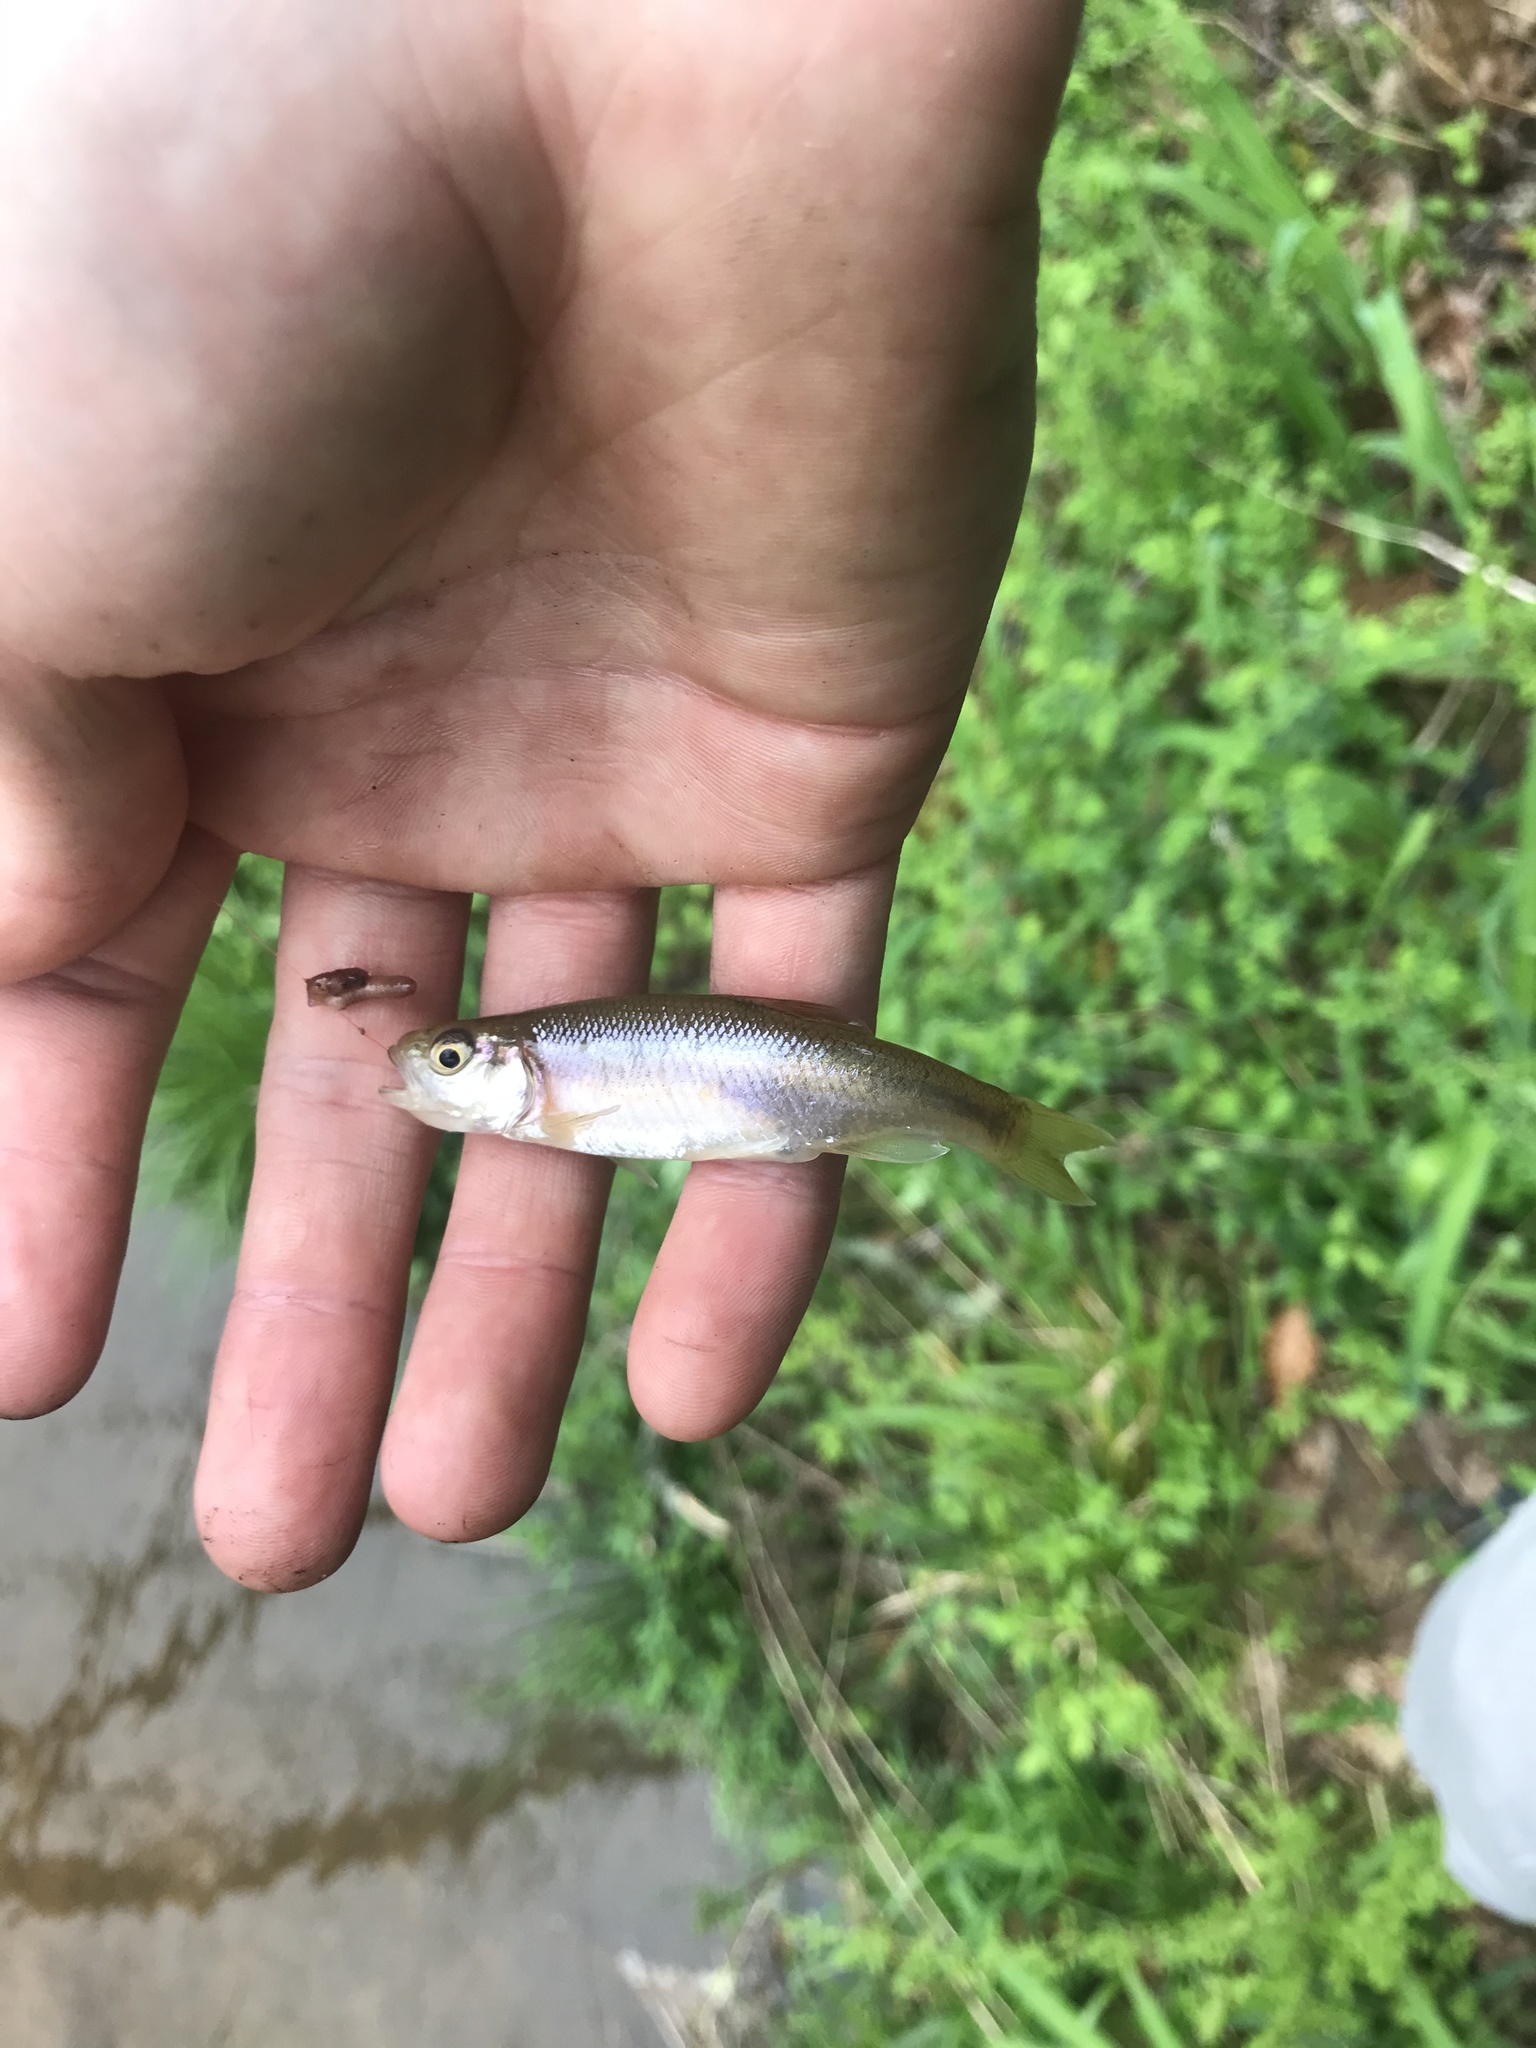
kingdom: Animalia
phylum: Chordata
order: Cypriniformes
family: Cyprinidae
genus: Clinostomus
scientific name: Clinostomus funduloides
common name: Rosyside dace
